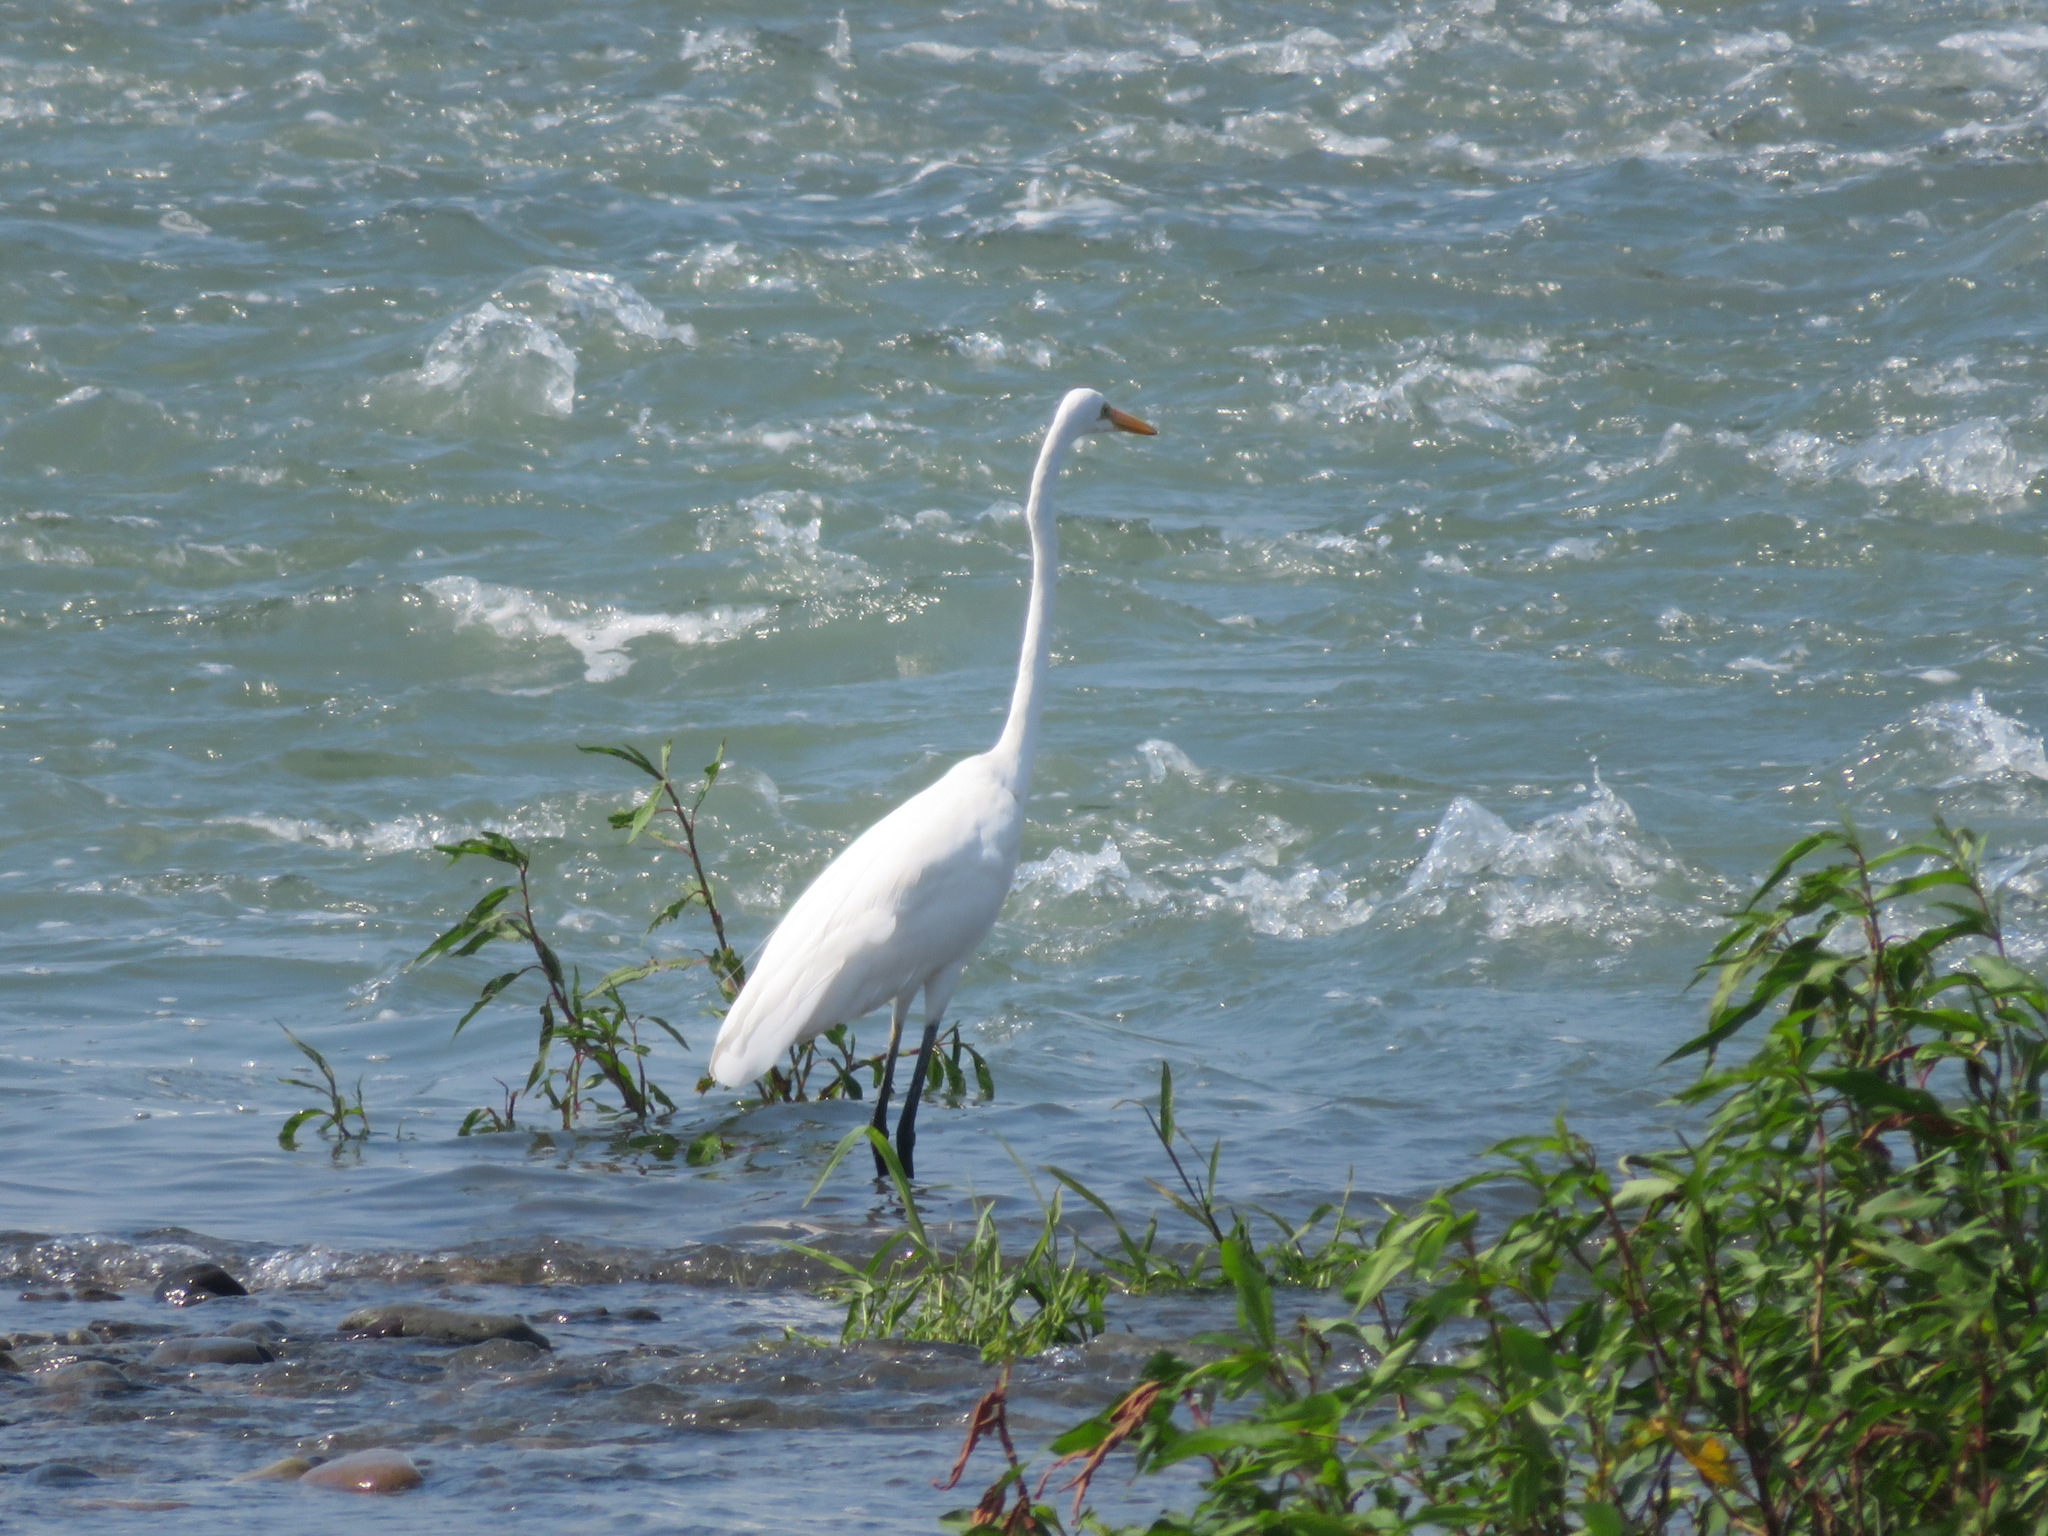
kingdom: Animalia
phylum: Chordata
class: Aves
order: Pelecaniformes
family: Ardeidae
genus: Ardea
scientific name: Ardea modesta
